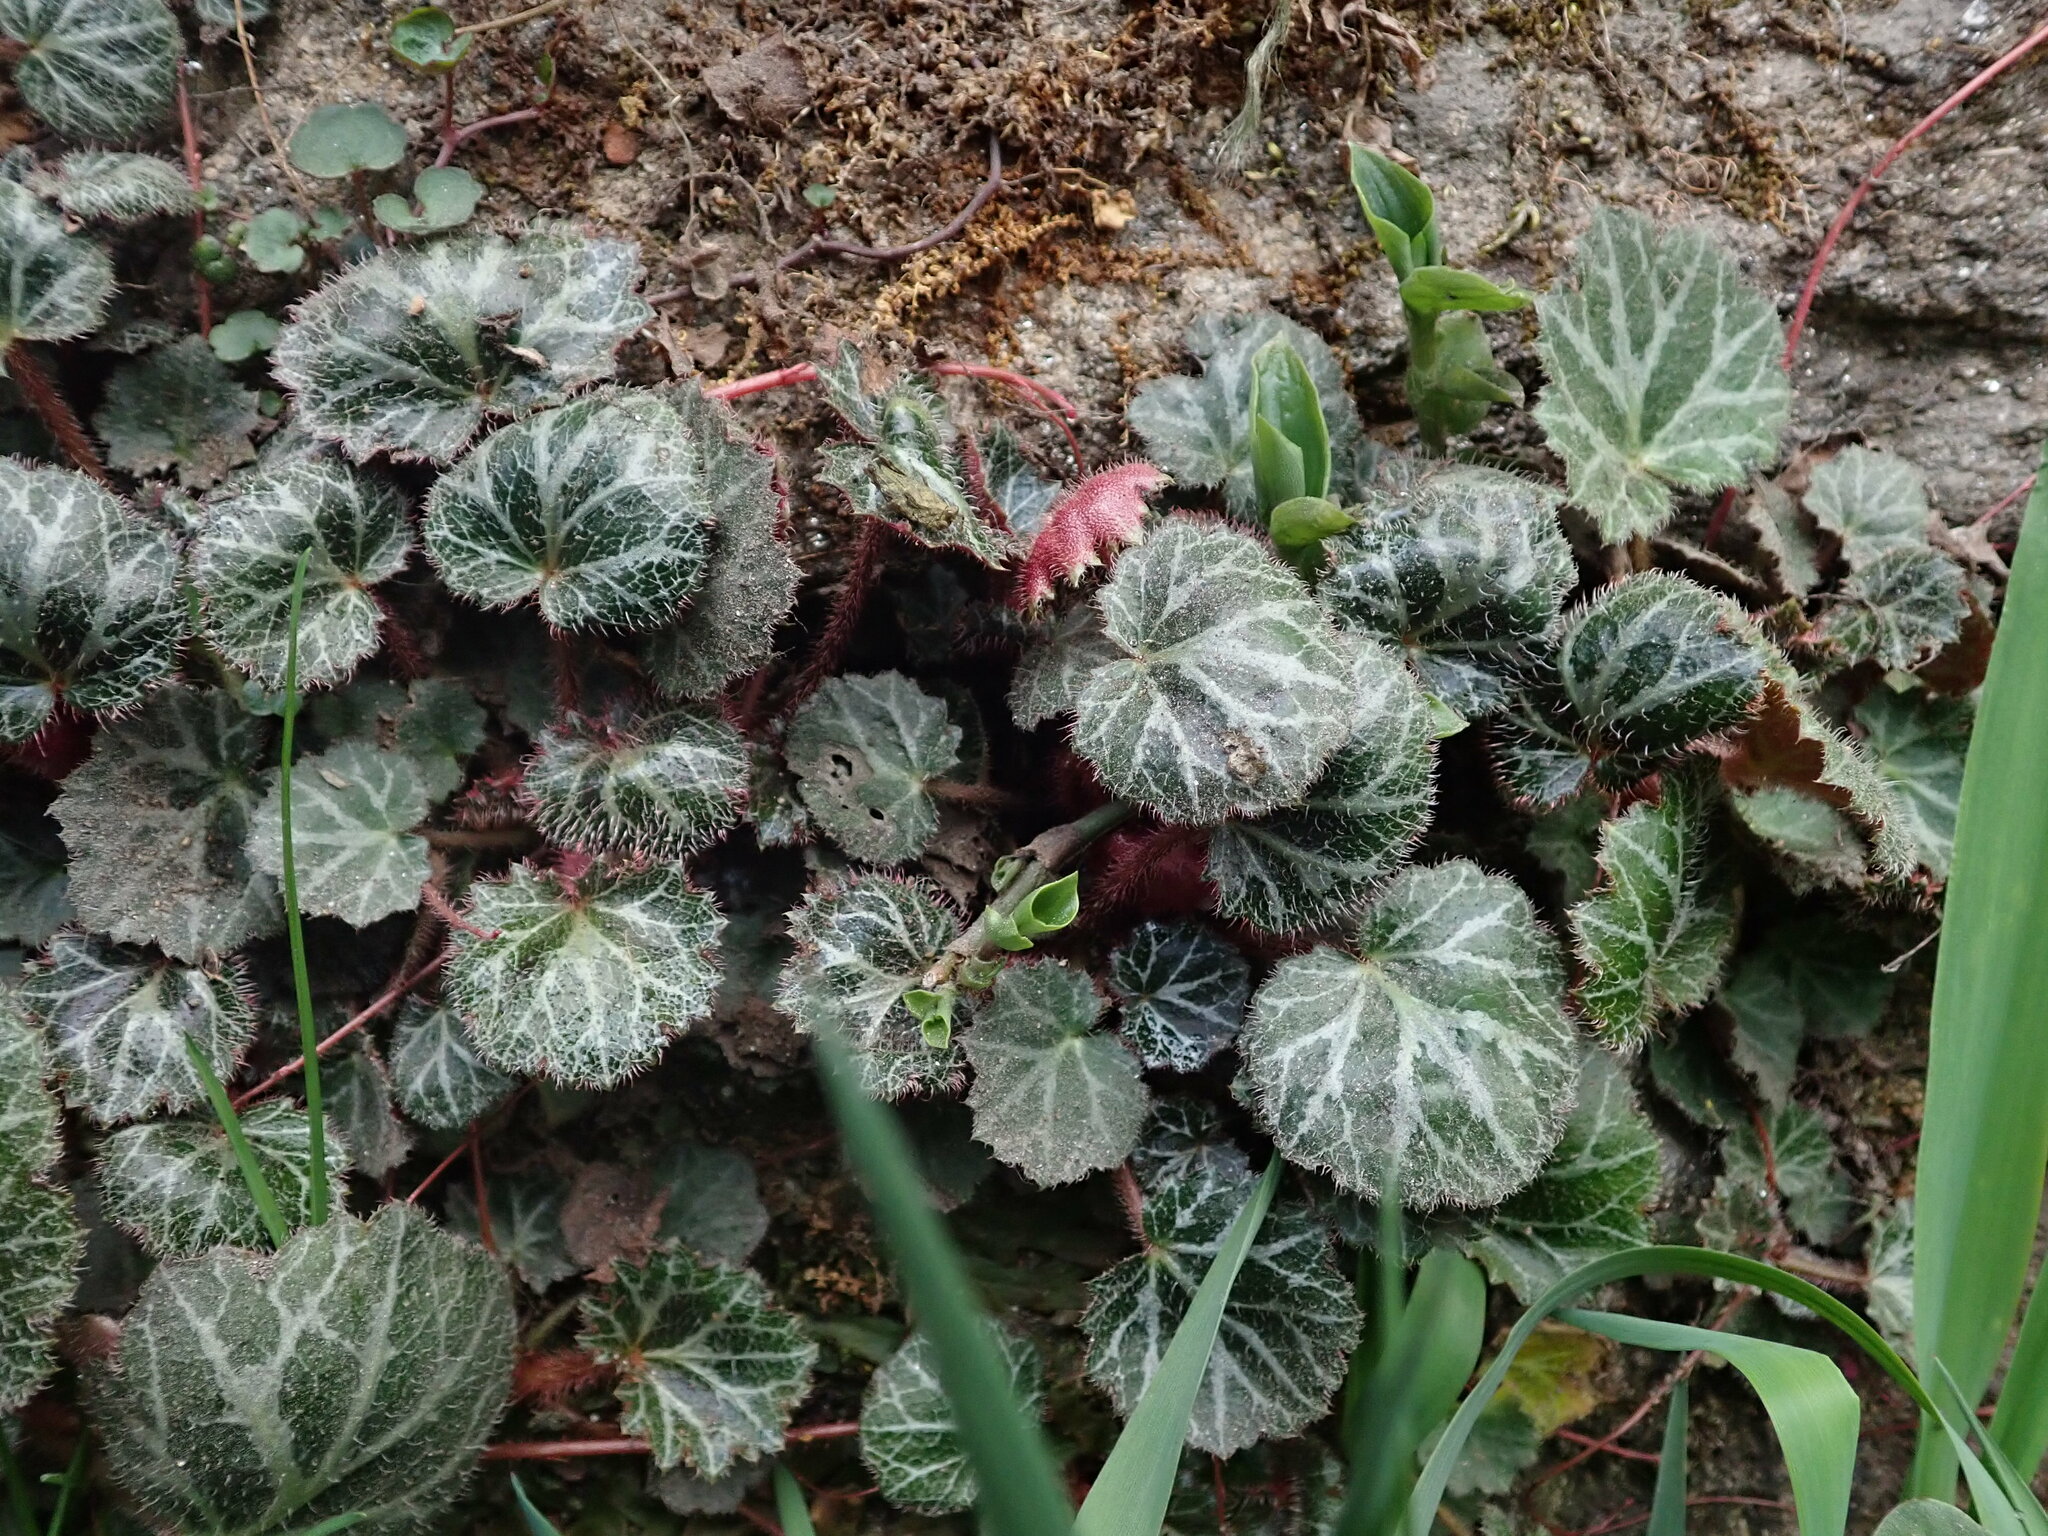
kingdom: Plantae
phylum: Tracheophyta
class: Magnoliopsida
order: Saxifragales
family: Saxifragaceae
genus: Saxifraga
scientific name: Saxifraga stolonifera
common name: Creeping saxifrage
